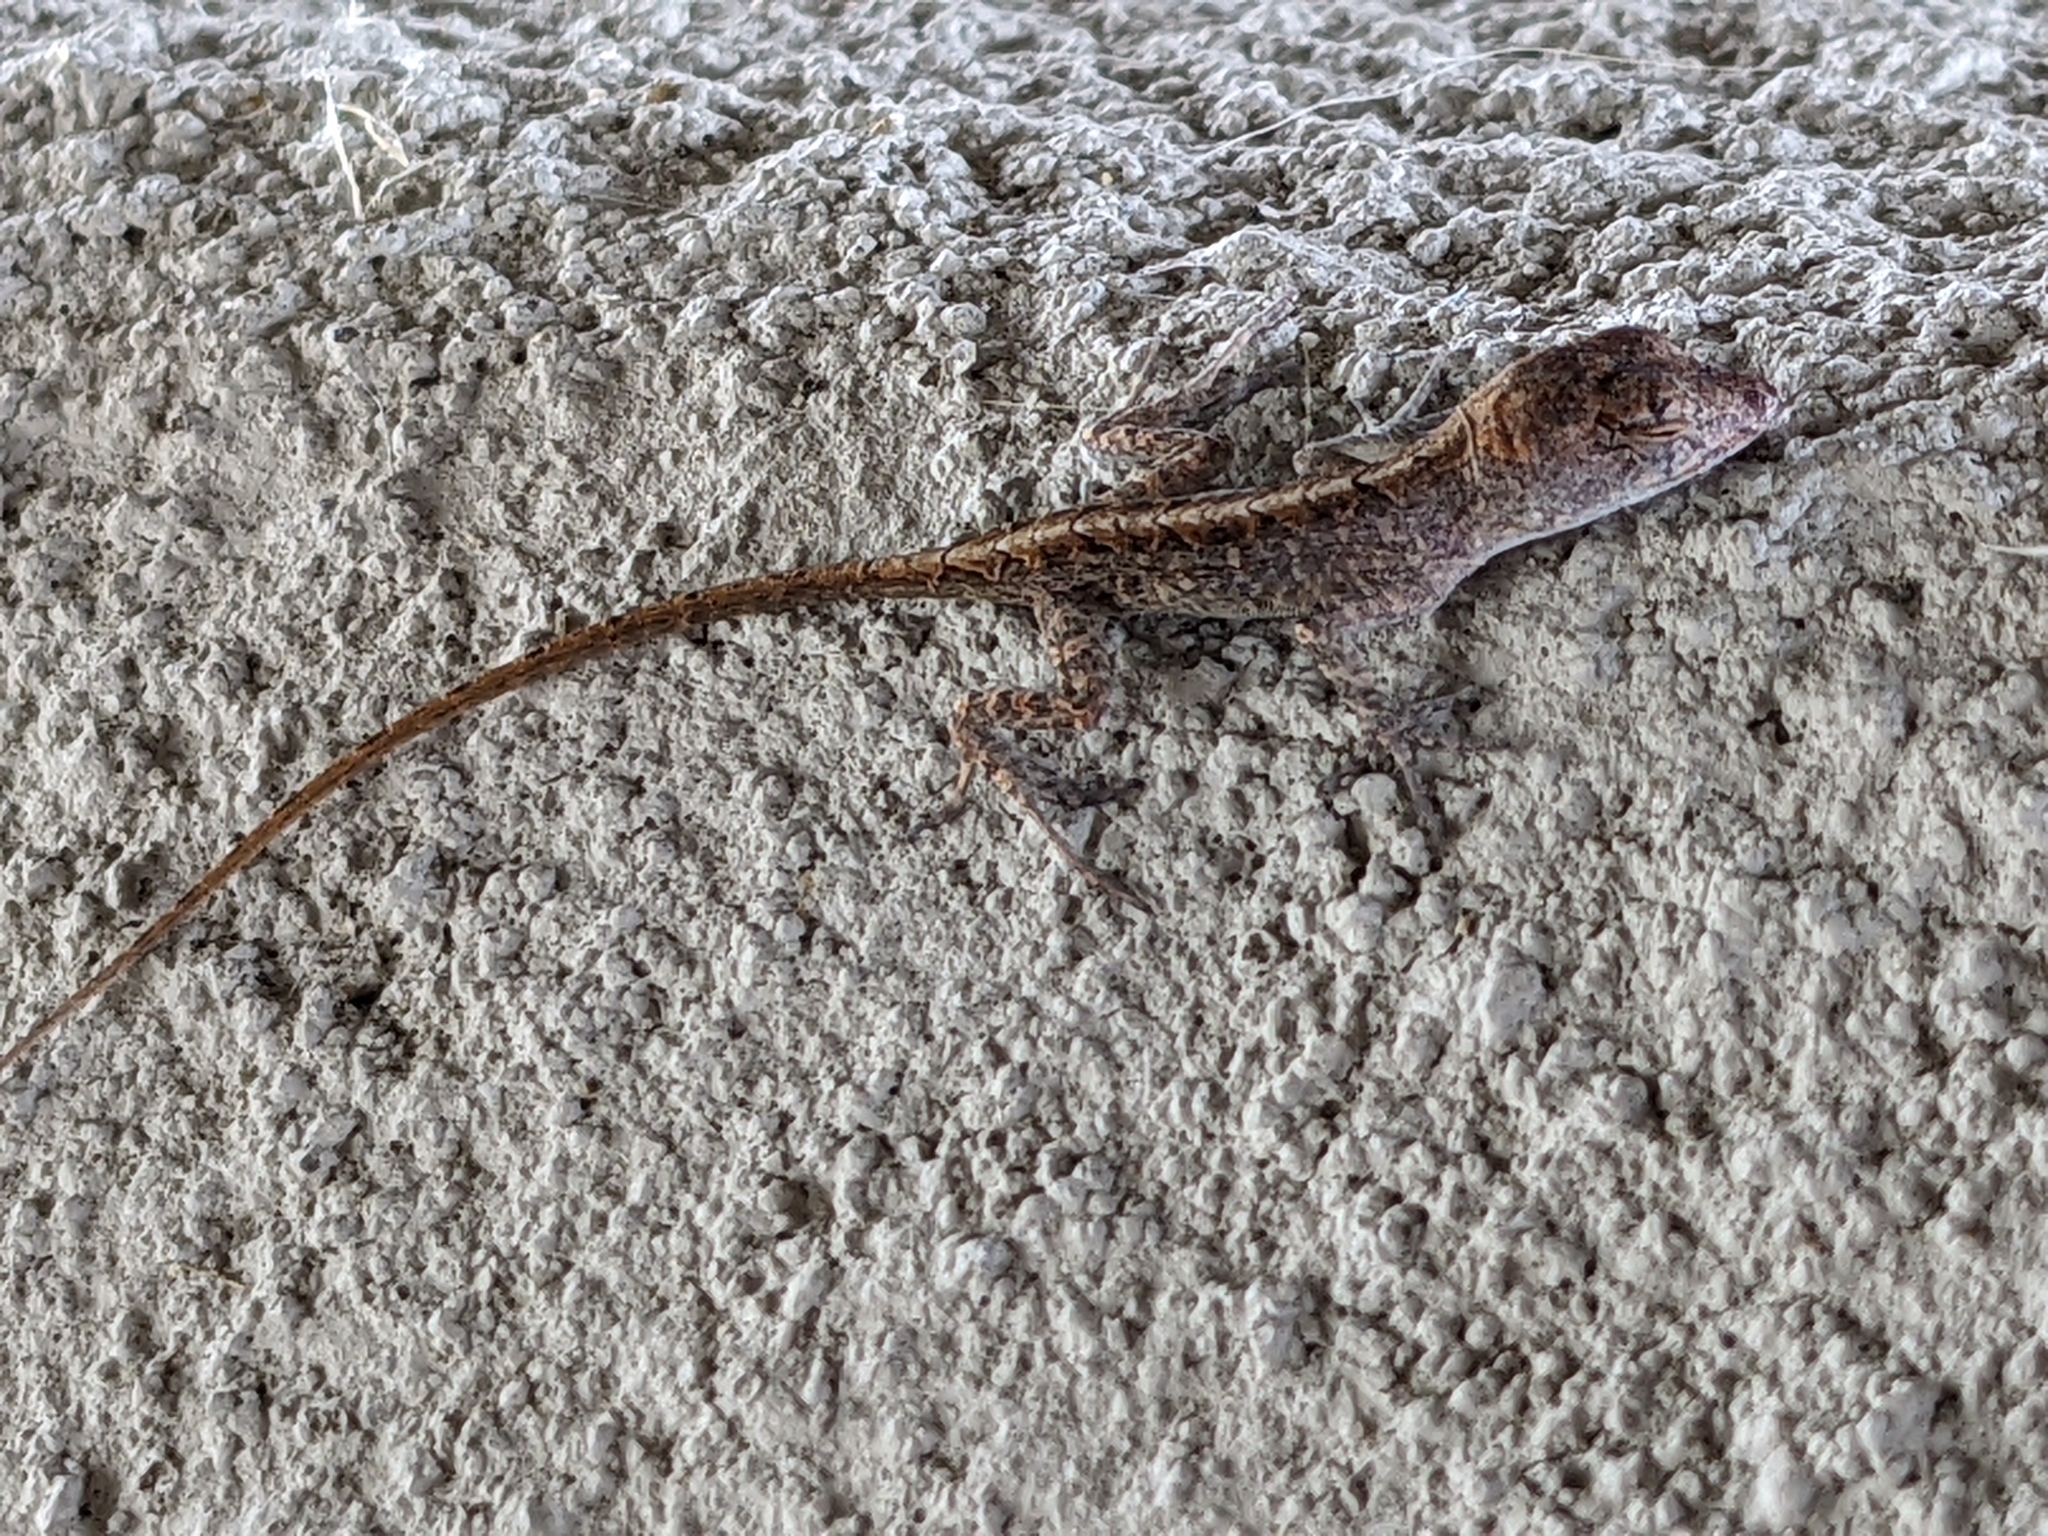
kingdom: Animalia
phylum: Chordata
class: Squamata
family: Dactyloidae
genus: Anolis
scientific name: Anolis sagrei
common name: Brown anole
